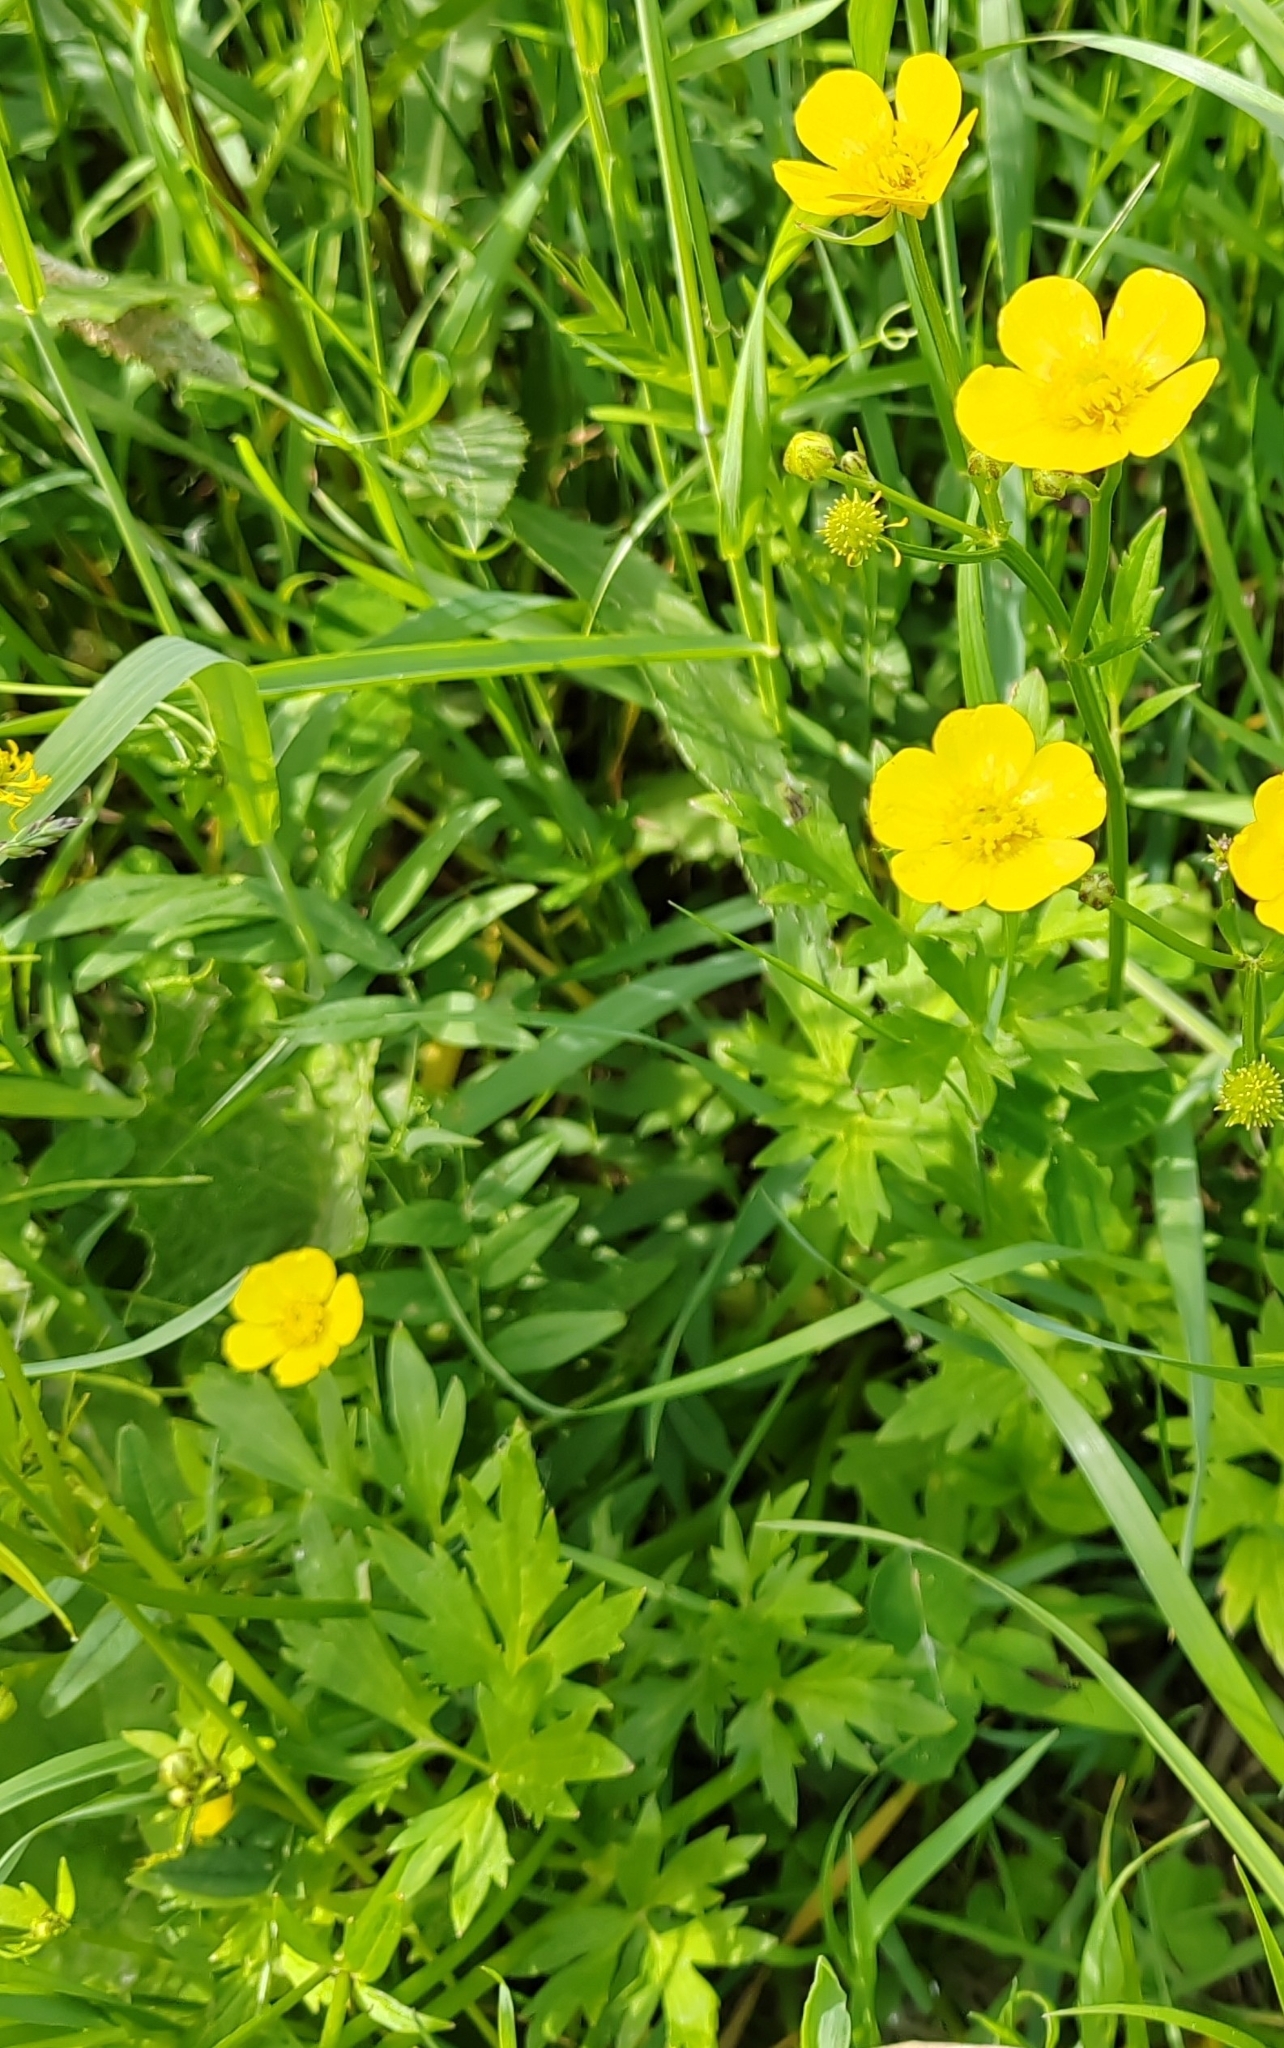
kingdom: Plantae
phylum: Tracheophyta
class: Magnoliopsida
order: Ranunculales
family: Ranunculaceae
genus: Ranunculus
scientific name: Ranunculus repens
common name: Creeping buttercup
